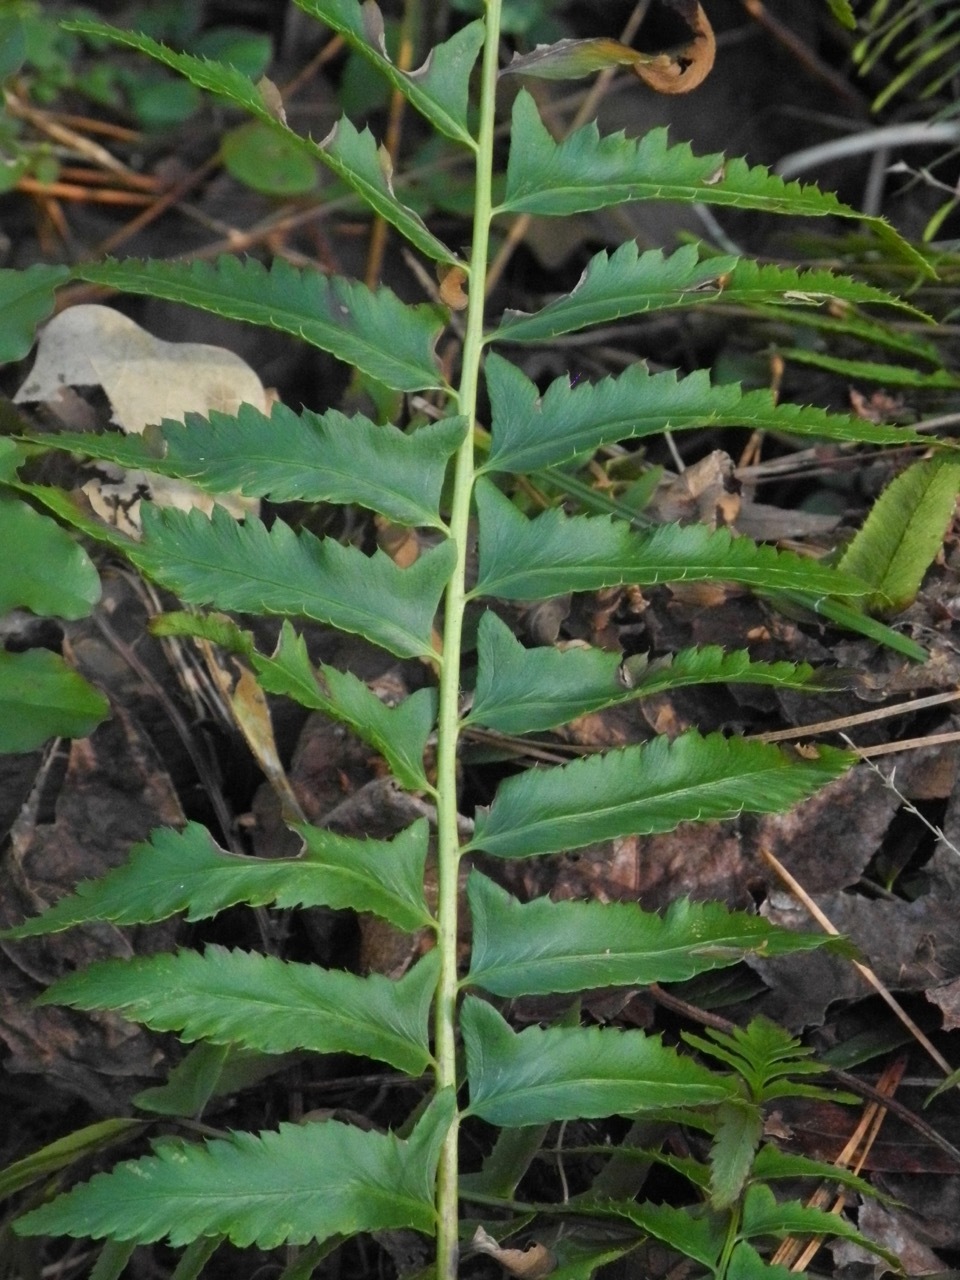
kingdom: Plantae
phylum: Tracheophyta
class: Polypodiopsida
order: Polypodiales
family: Dryopteridaceae
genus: Polystichum
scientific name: Polystichum acrostichoides
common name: Christmas fern
